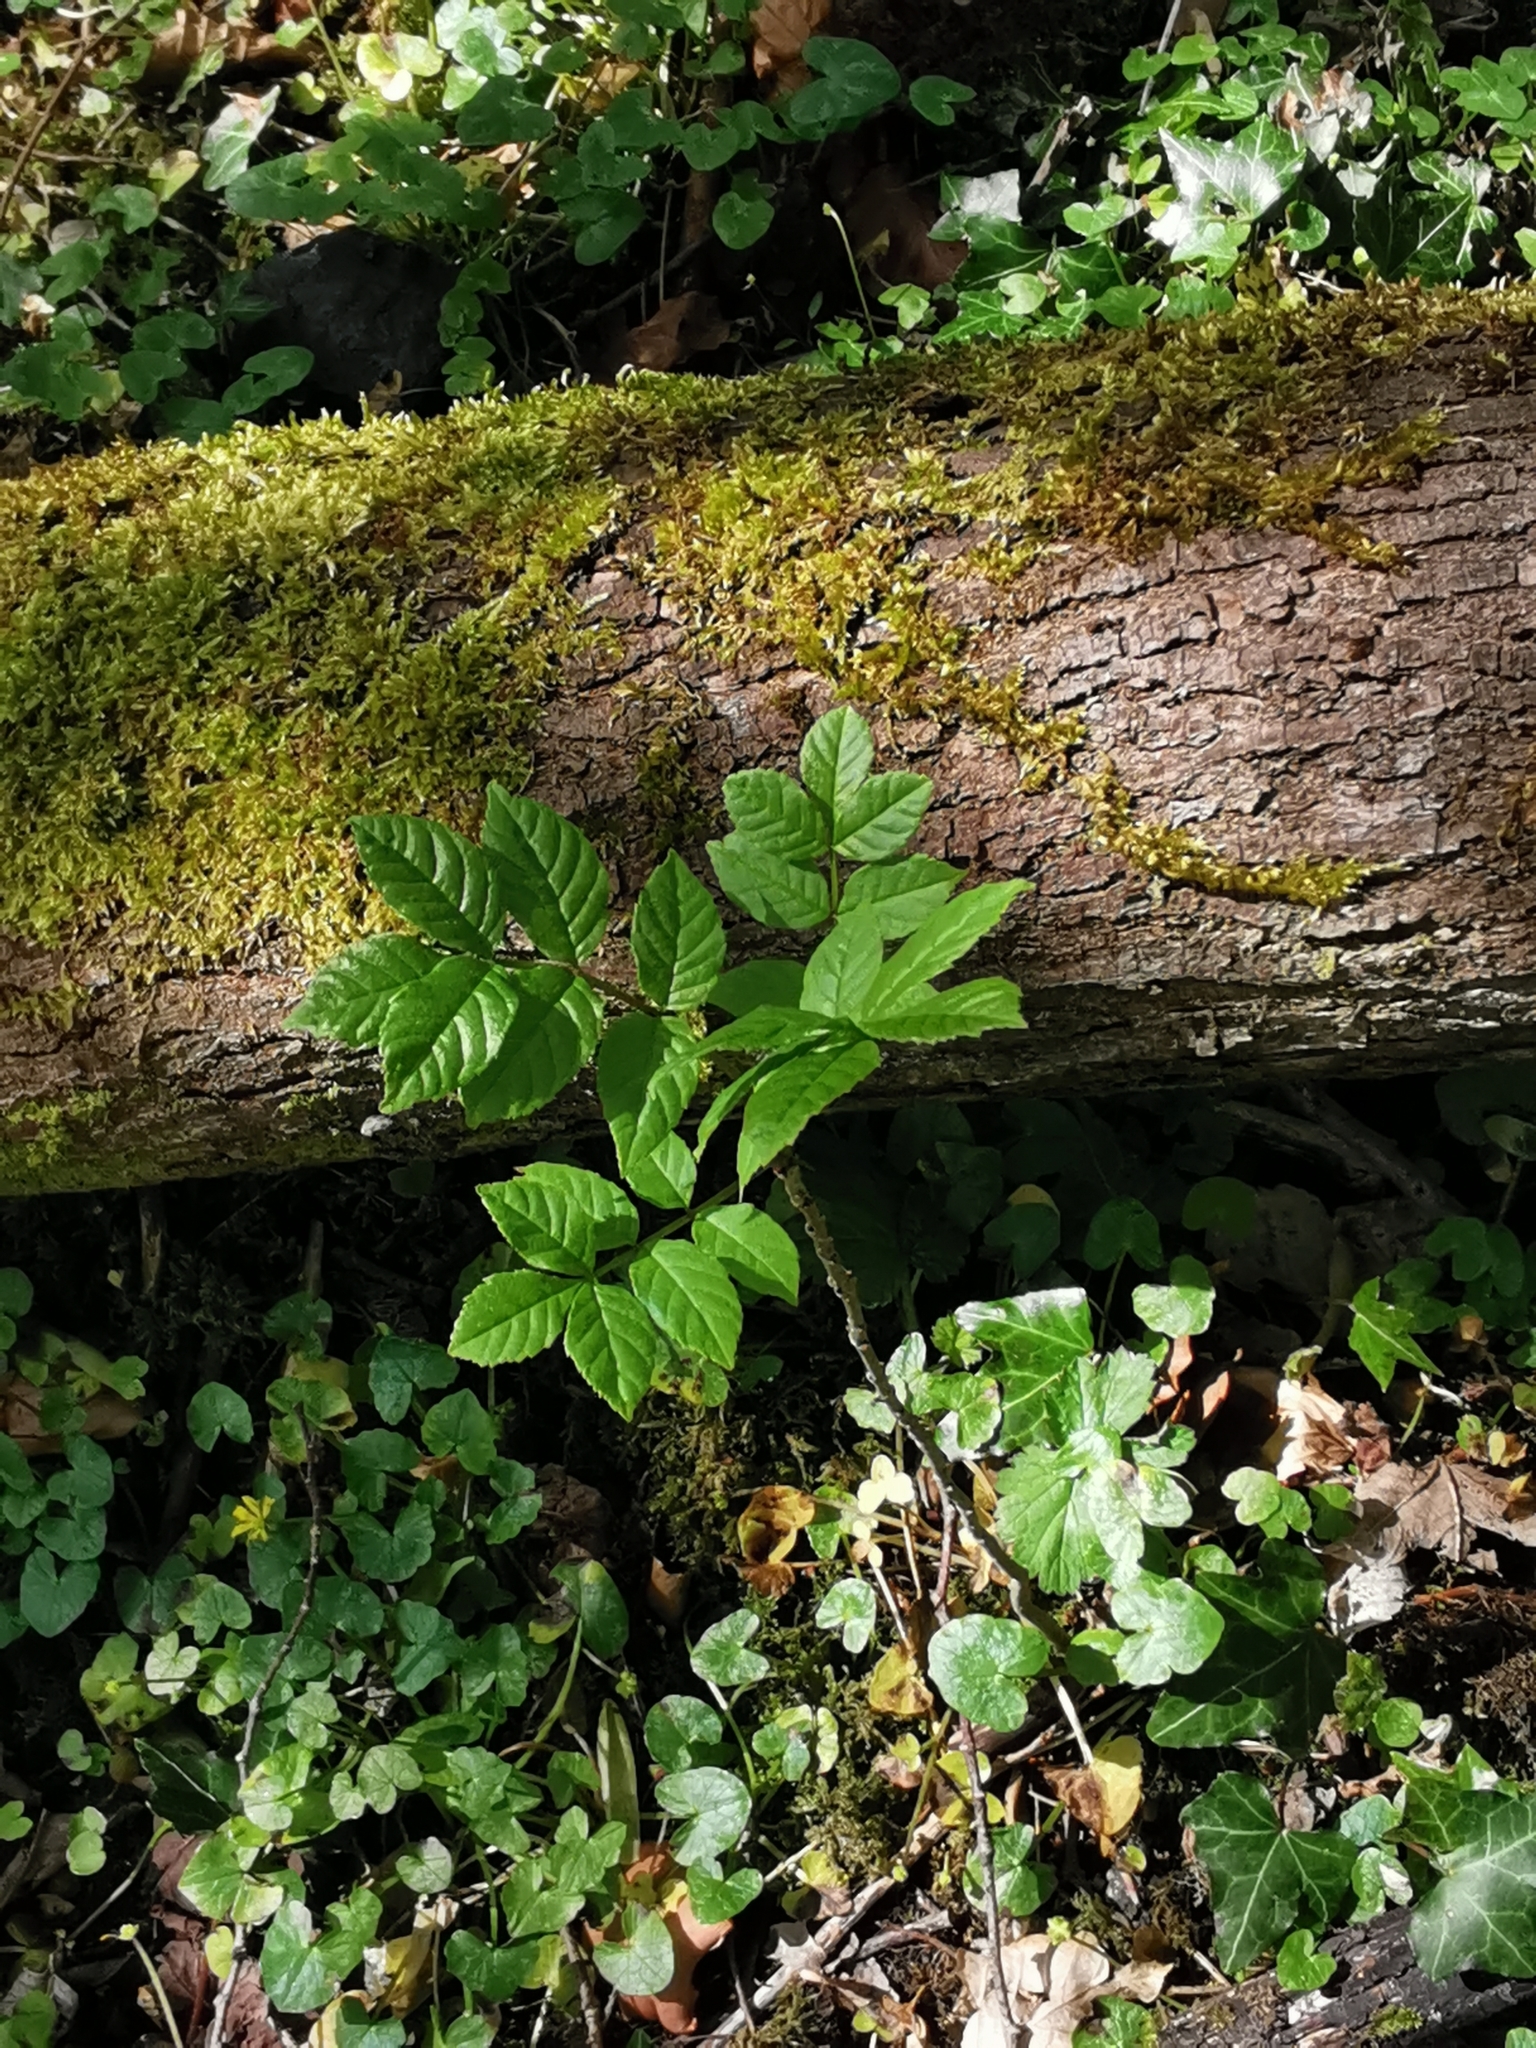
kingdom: Plantae
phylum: Tracheophyta
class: Magnoliopsida
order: Lamiales
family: Oleaceae
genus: Fraxinus
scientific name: Fraxinus excelsior
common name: European ash
